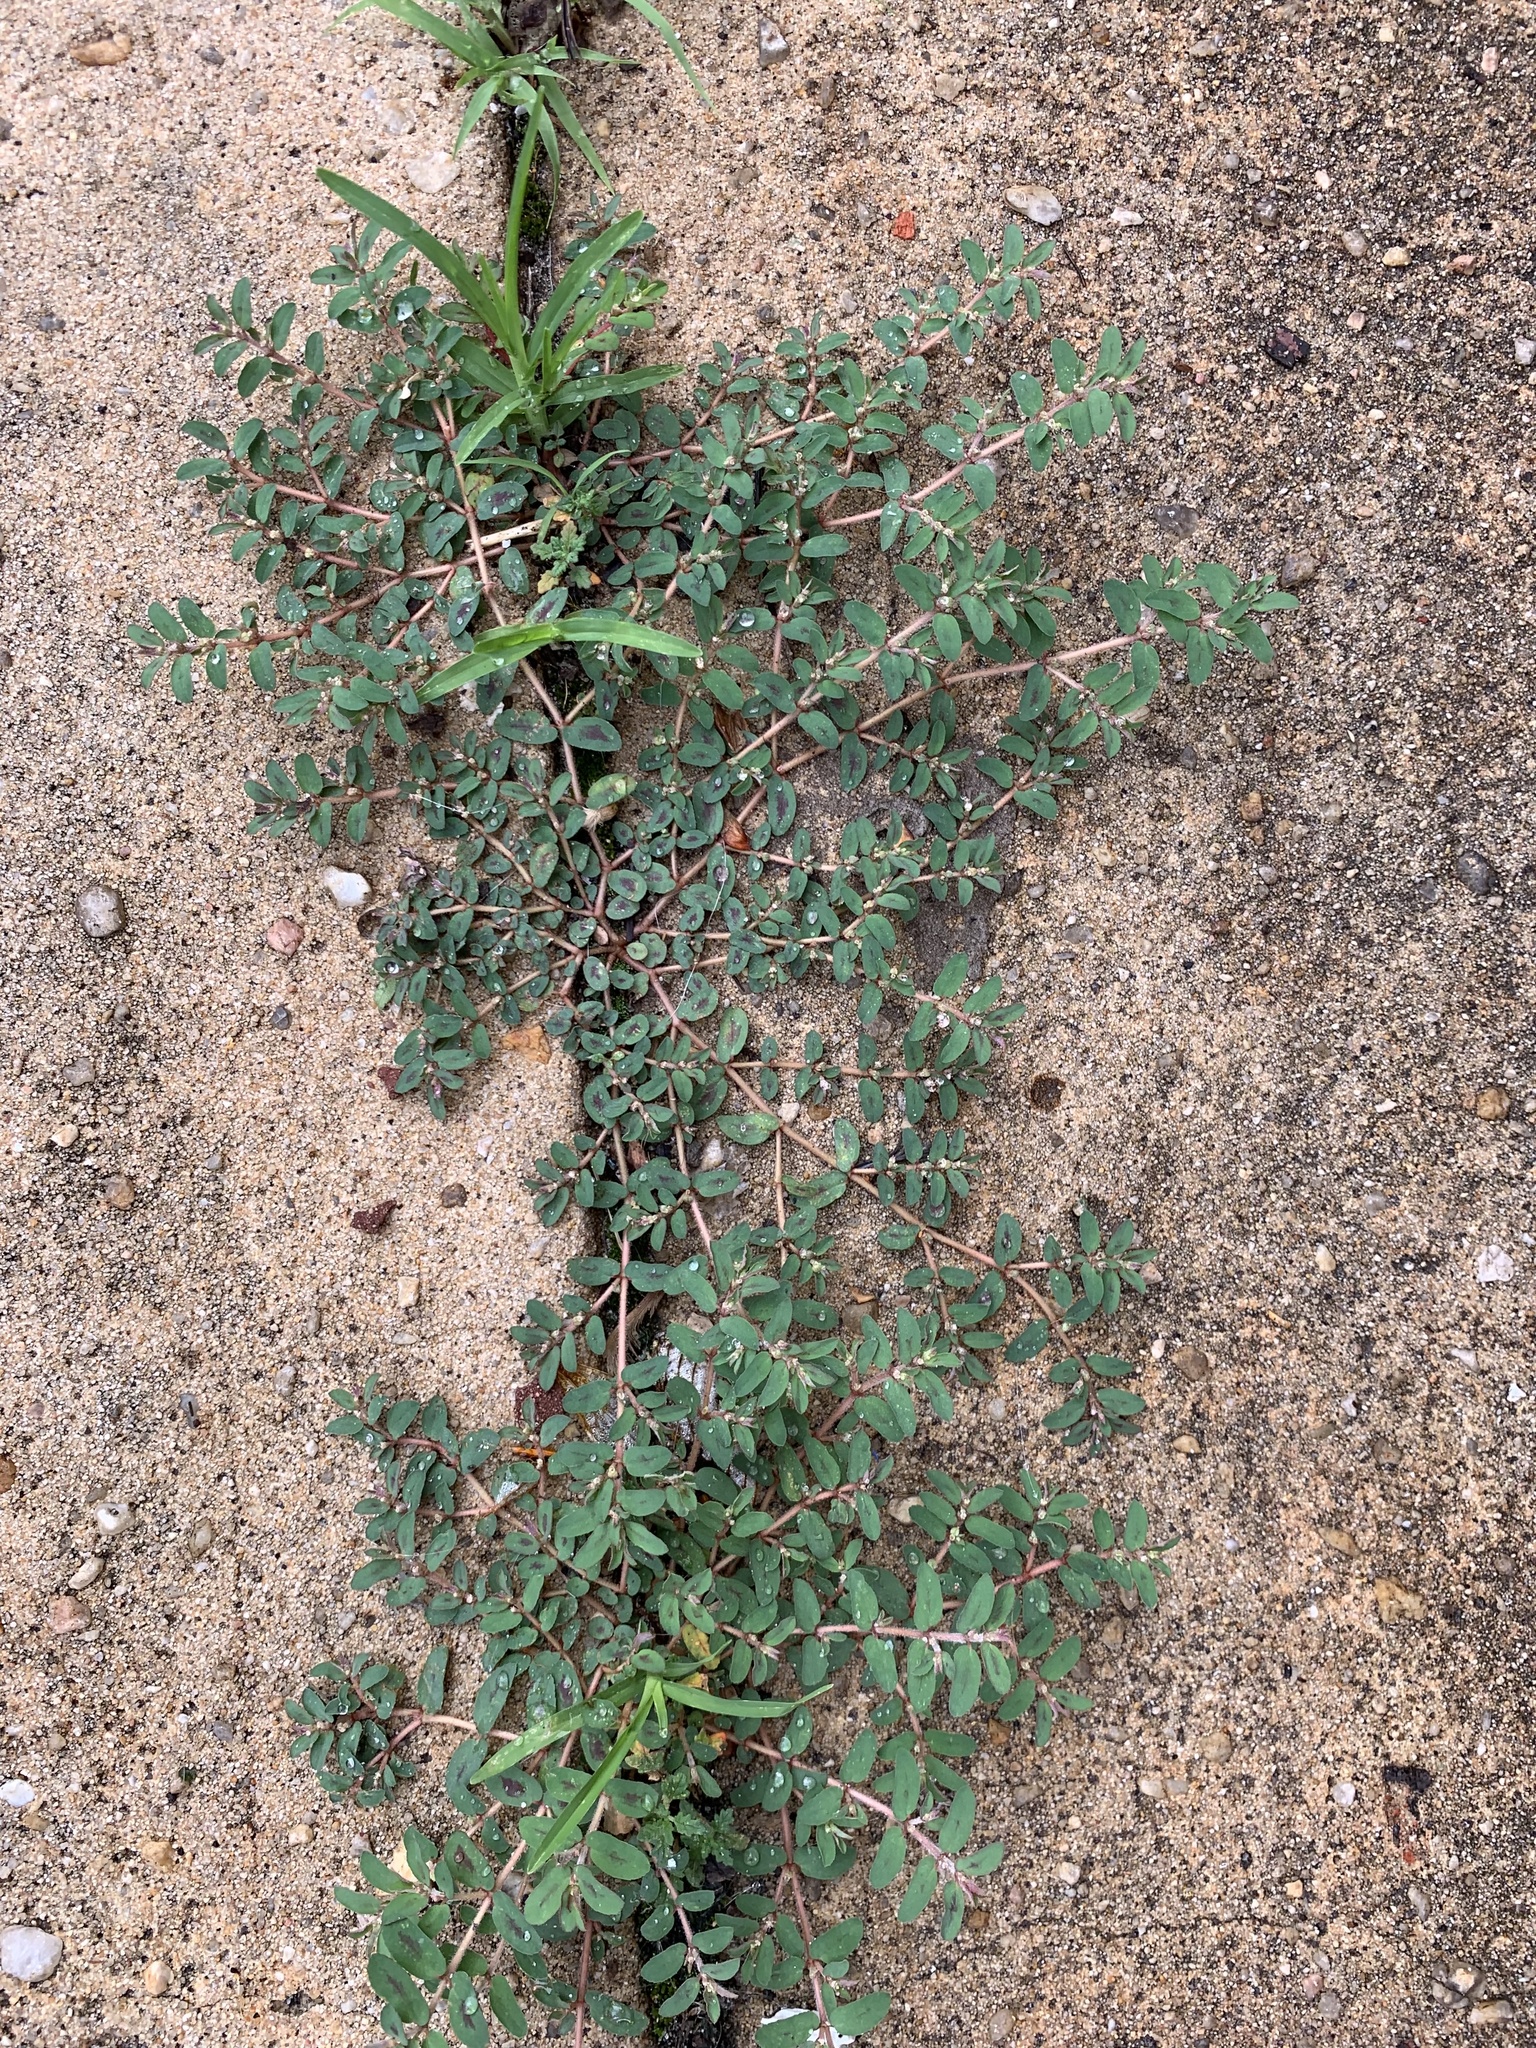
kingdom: Plantae
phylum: Tracheophyta
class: Magnoliopsida
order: Malpighiales
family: Euphorbiaceae
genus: Euphorbia
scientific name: Euphorbia maculata
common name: Spotted spurge
